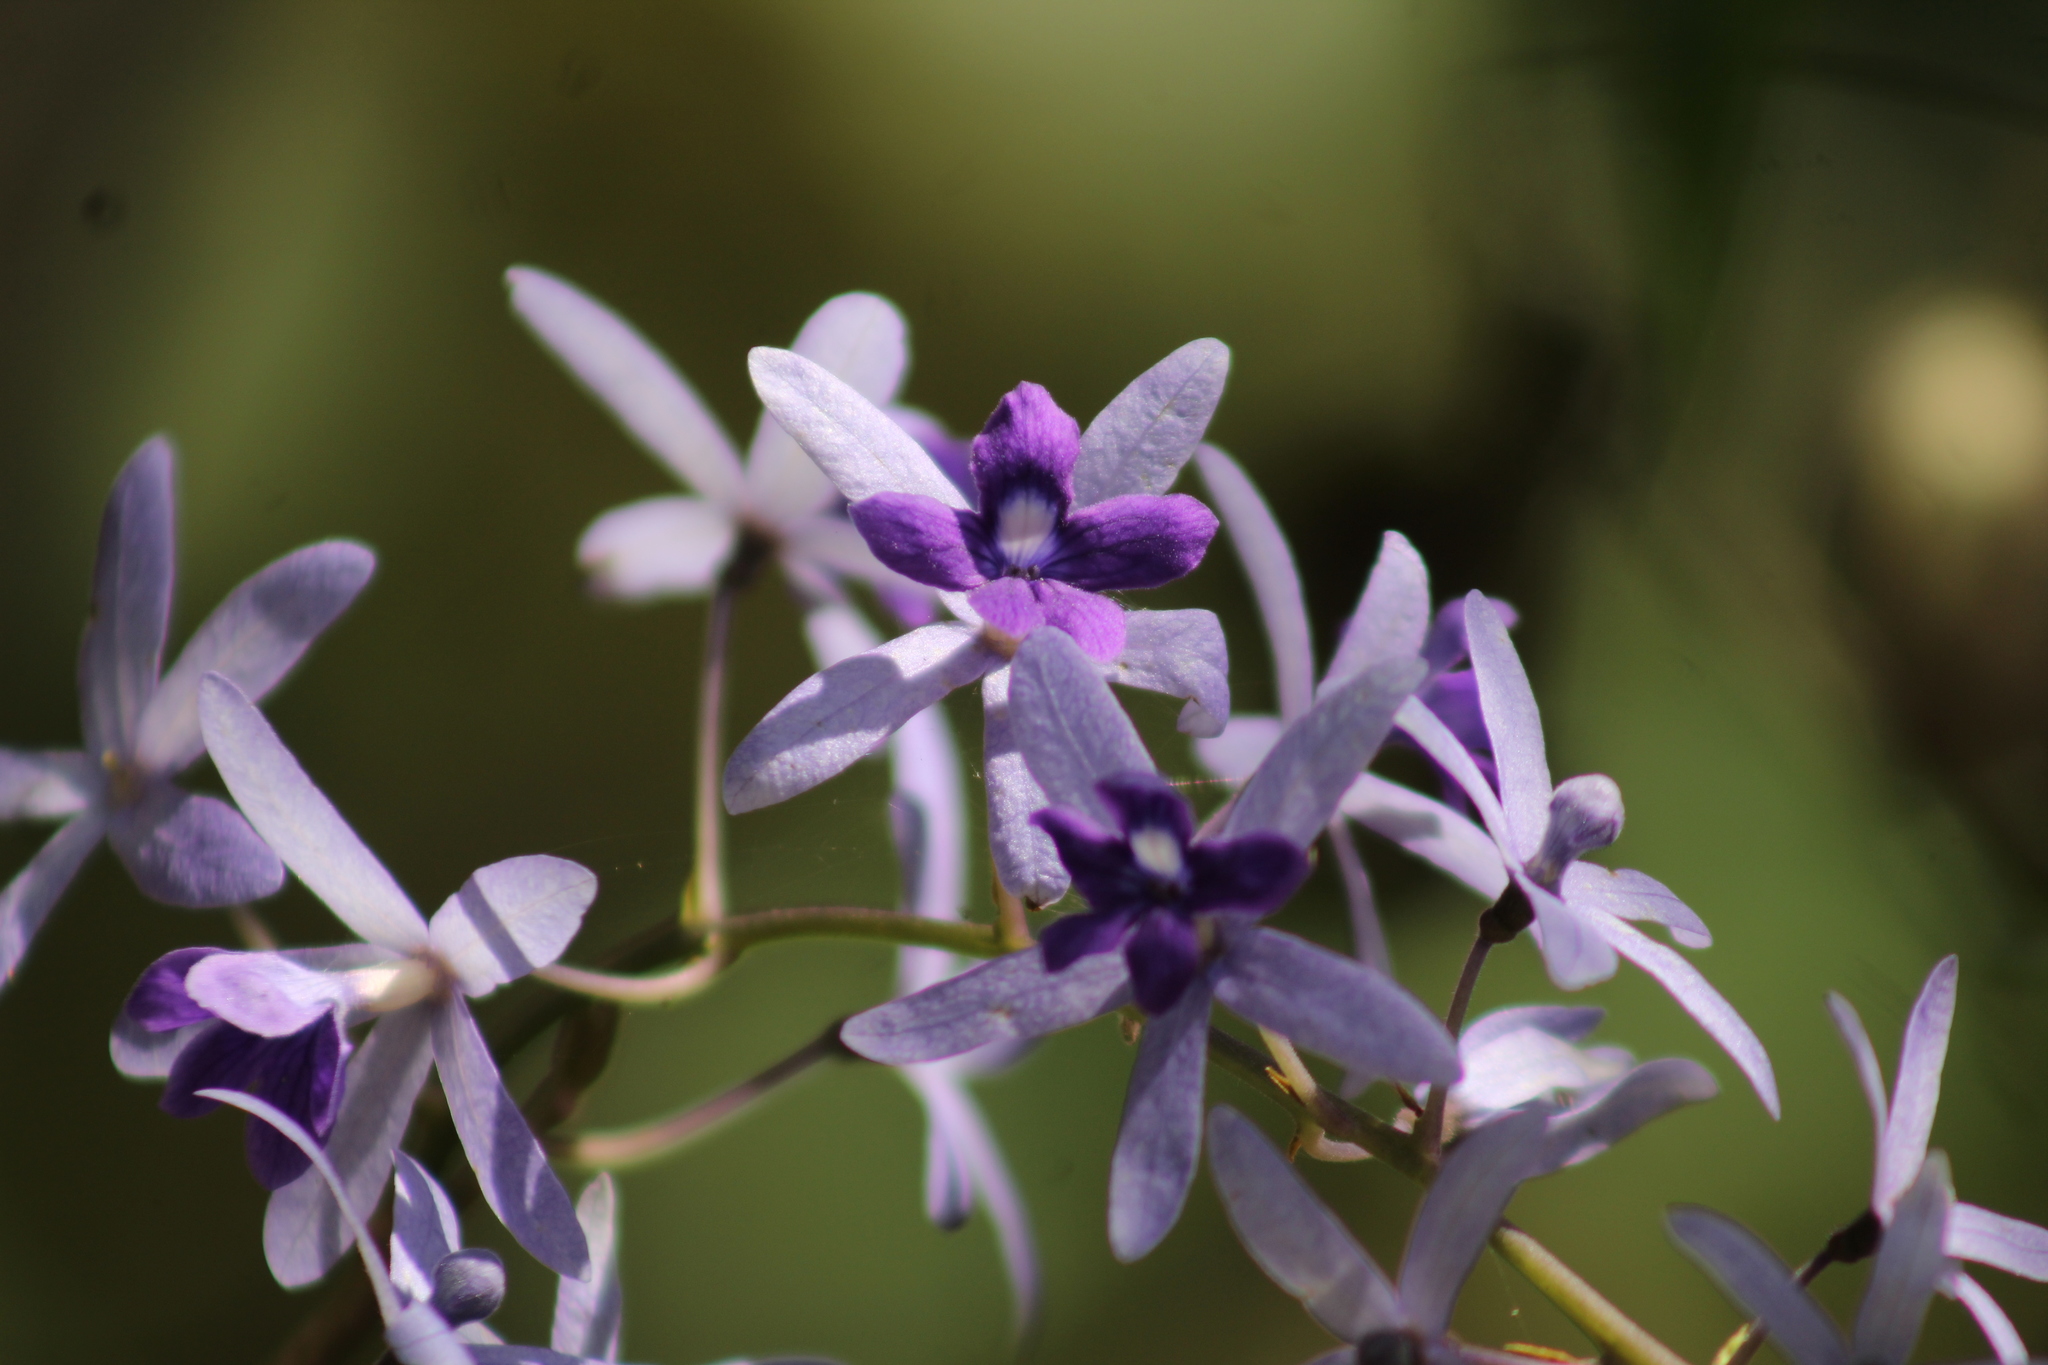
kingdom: Plantae
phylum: Tracheophyta
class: Magnoliopsida
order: Lamiales
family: Verbenaceae
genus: Petrea
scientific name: Petrea volubilis
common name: Queen's-wreath
